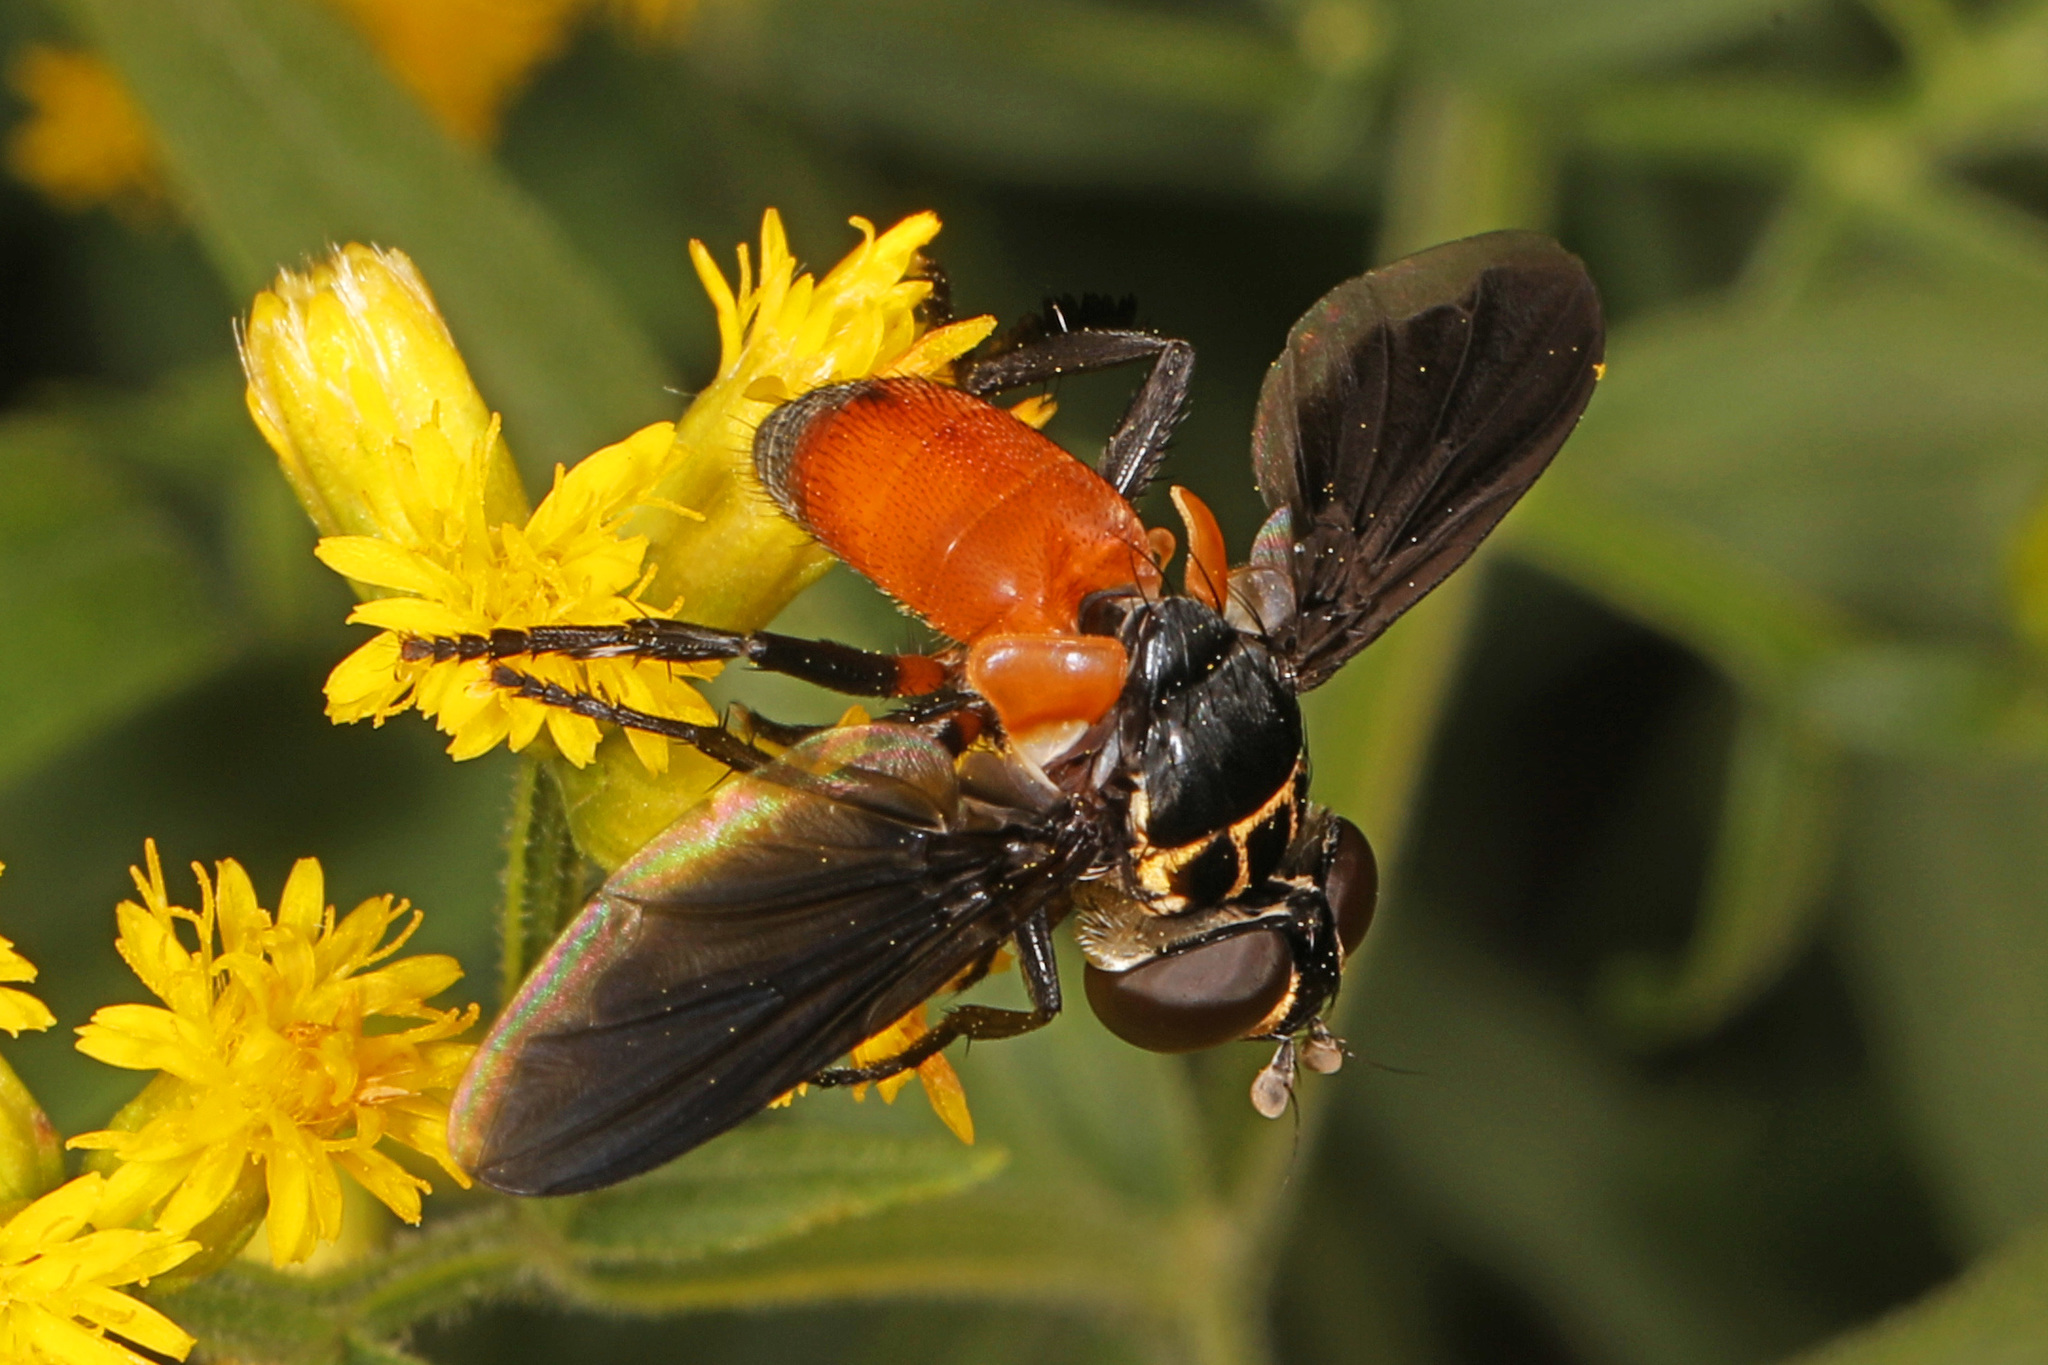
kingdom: Animalia
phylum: Arthropoda
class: Insecta
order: Diptera
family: Tachinidae
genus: Trichopoda
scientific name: Trichopoda pennipes
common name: Tachinid fly
